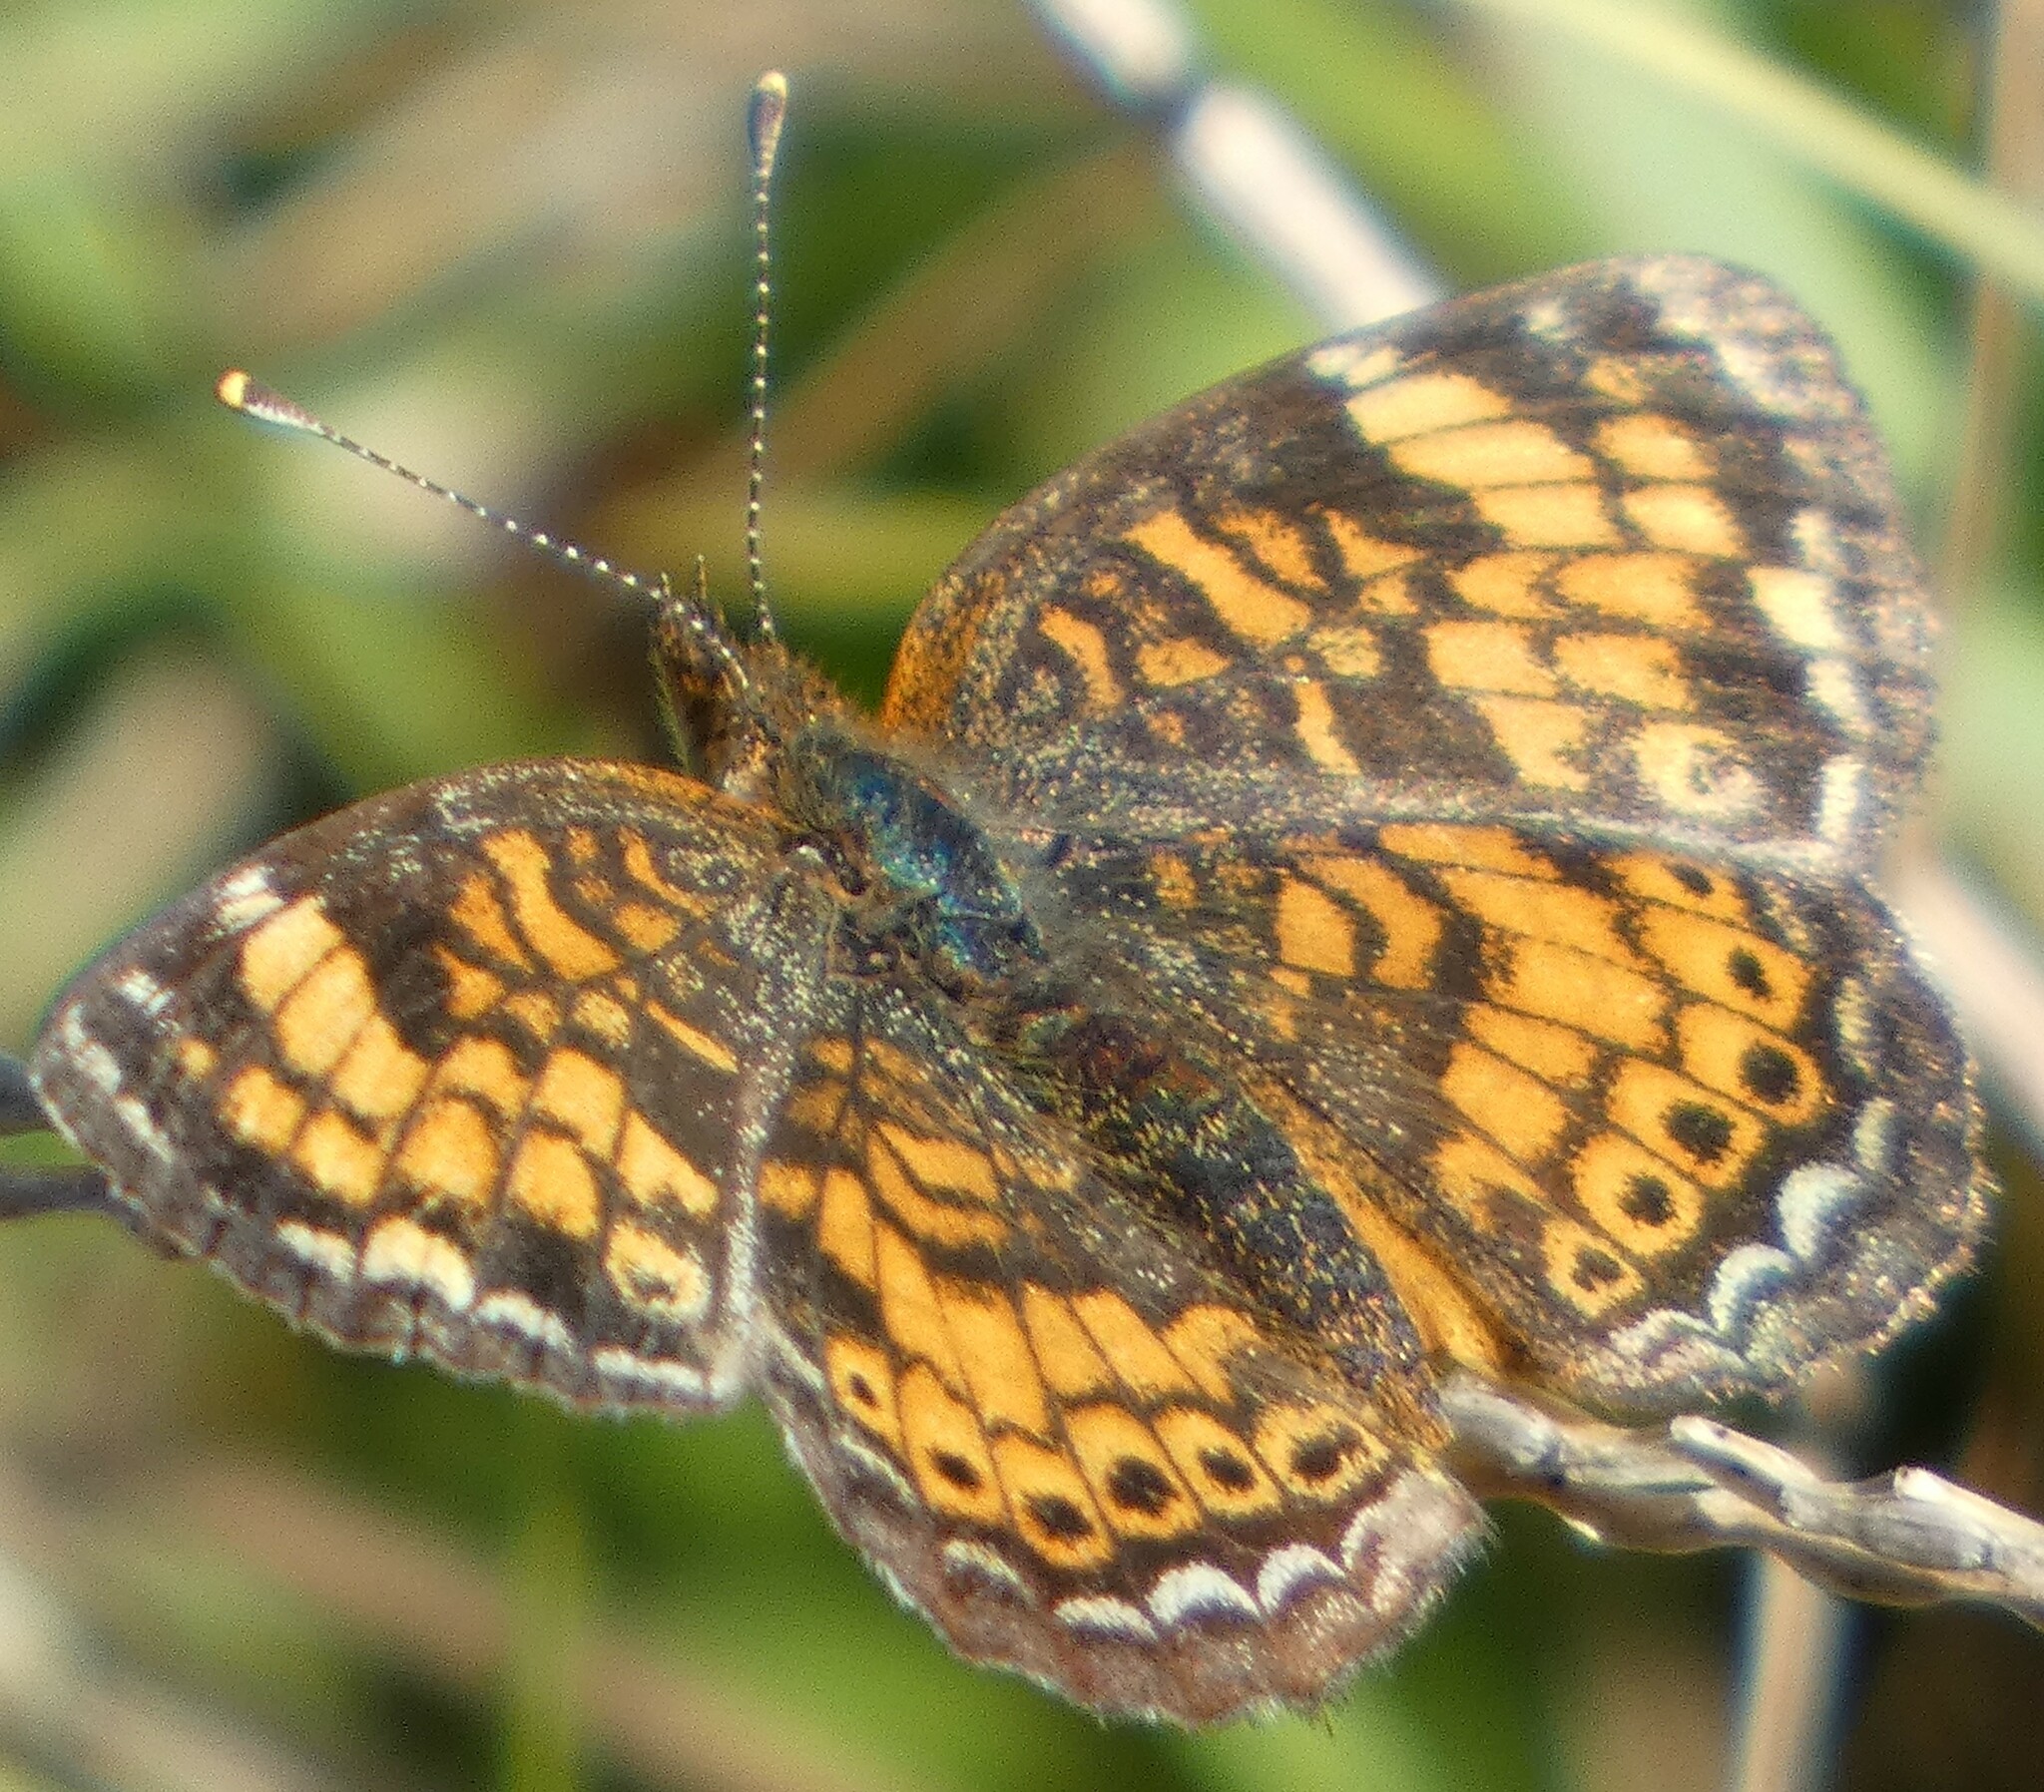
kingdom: Animalia
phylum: Arthropoda
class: Insecta
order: Lepidoptera
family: Nymphalidae
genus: Phyciodes
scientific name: Phyciodes tharos
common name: Pearl crescent
